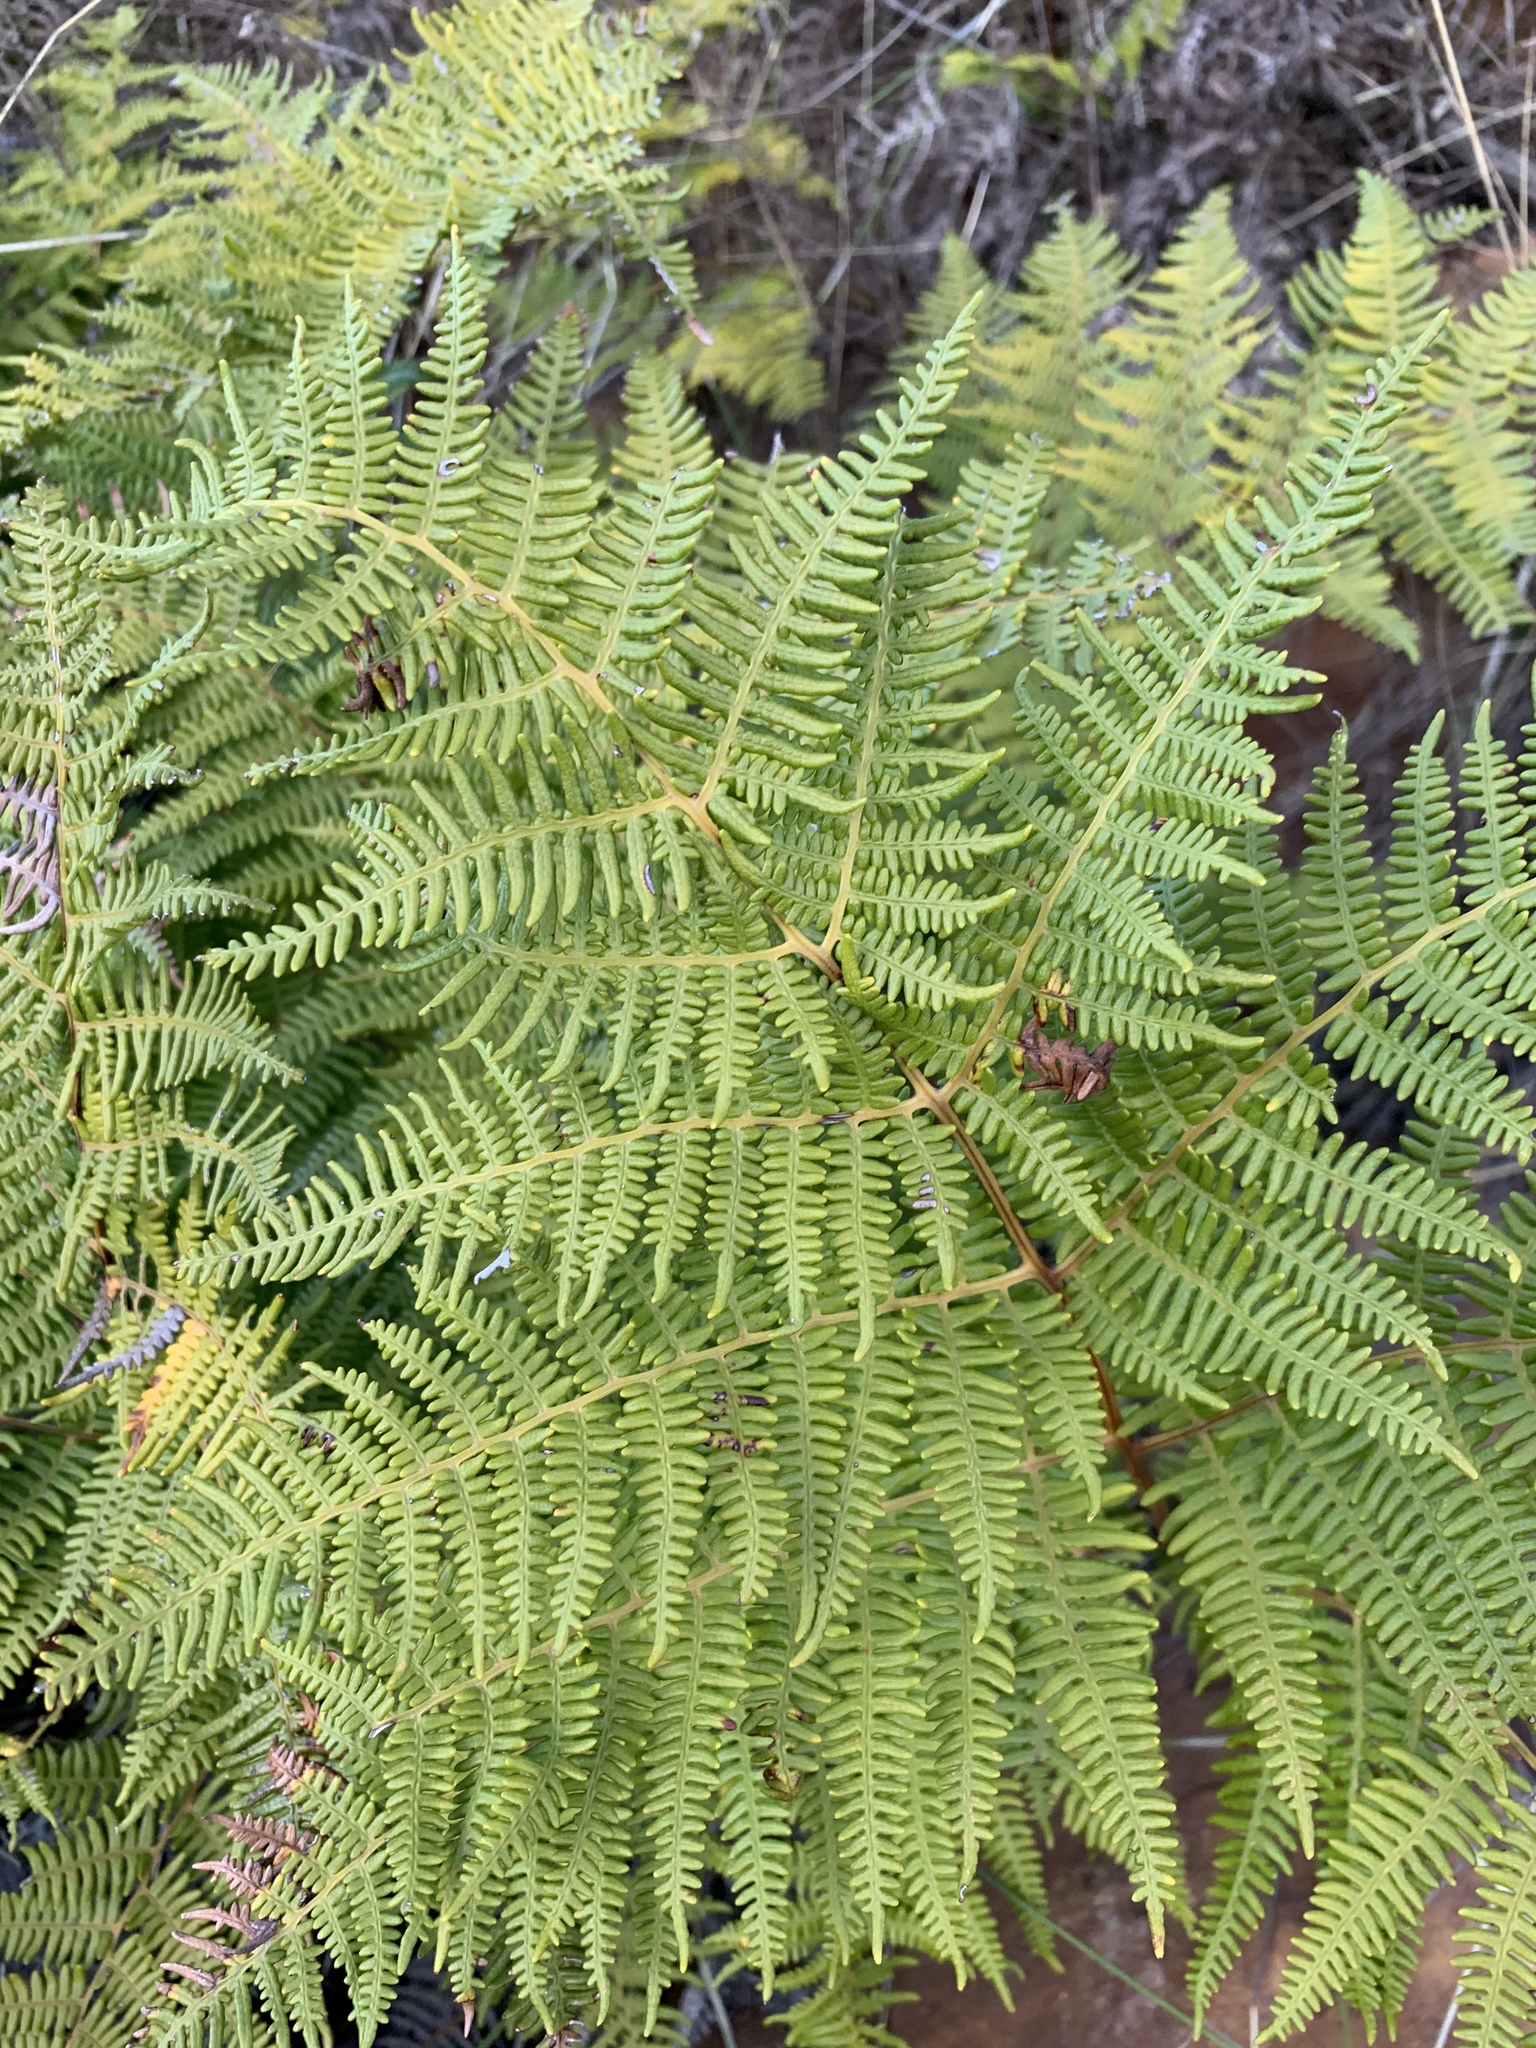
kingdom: Plantae
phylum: Tracheophyta
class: Polypodiopsida
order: Polypodiales
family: Dennstaedtiaceae
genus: Pteridium
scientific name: Pteridium aquilinum
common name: Bracken
